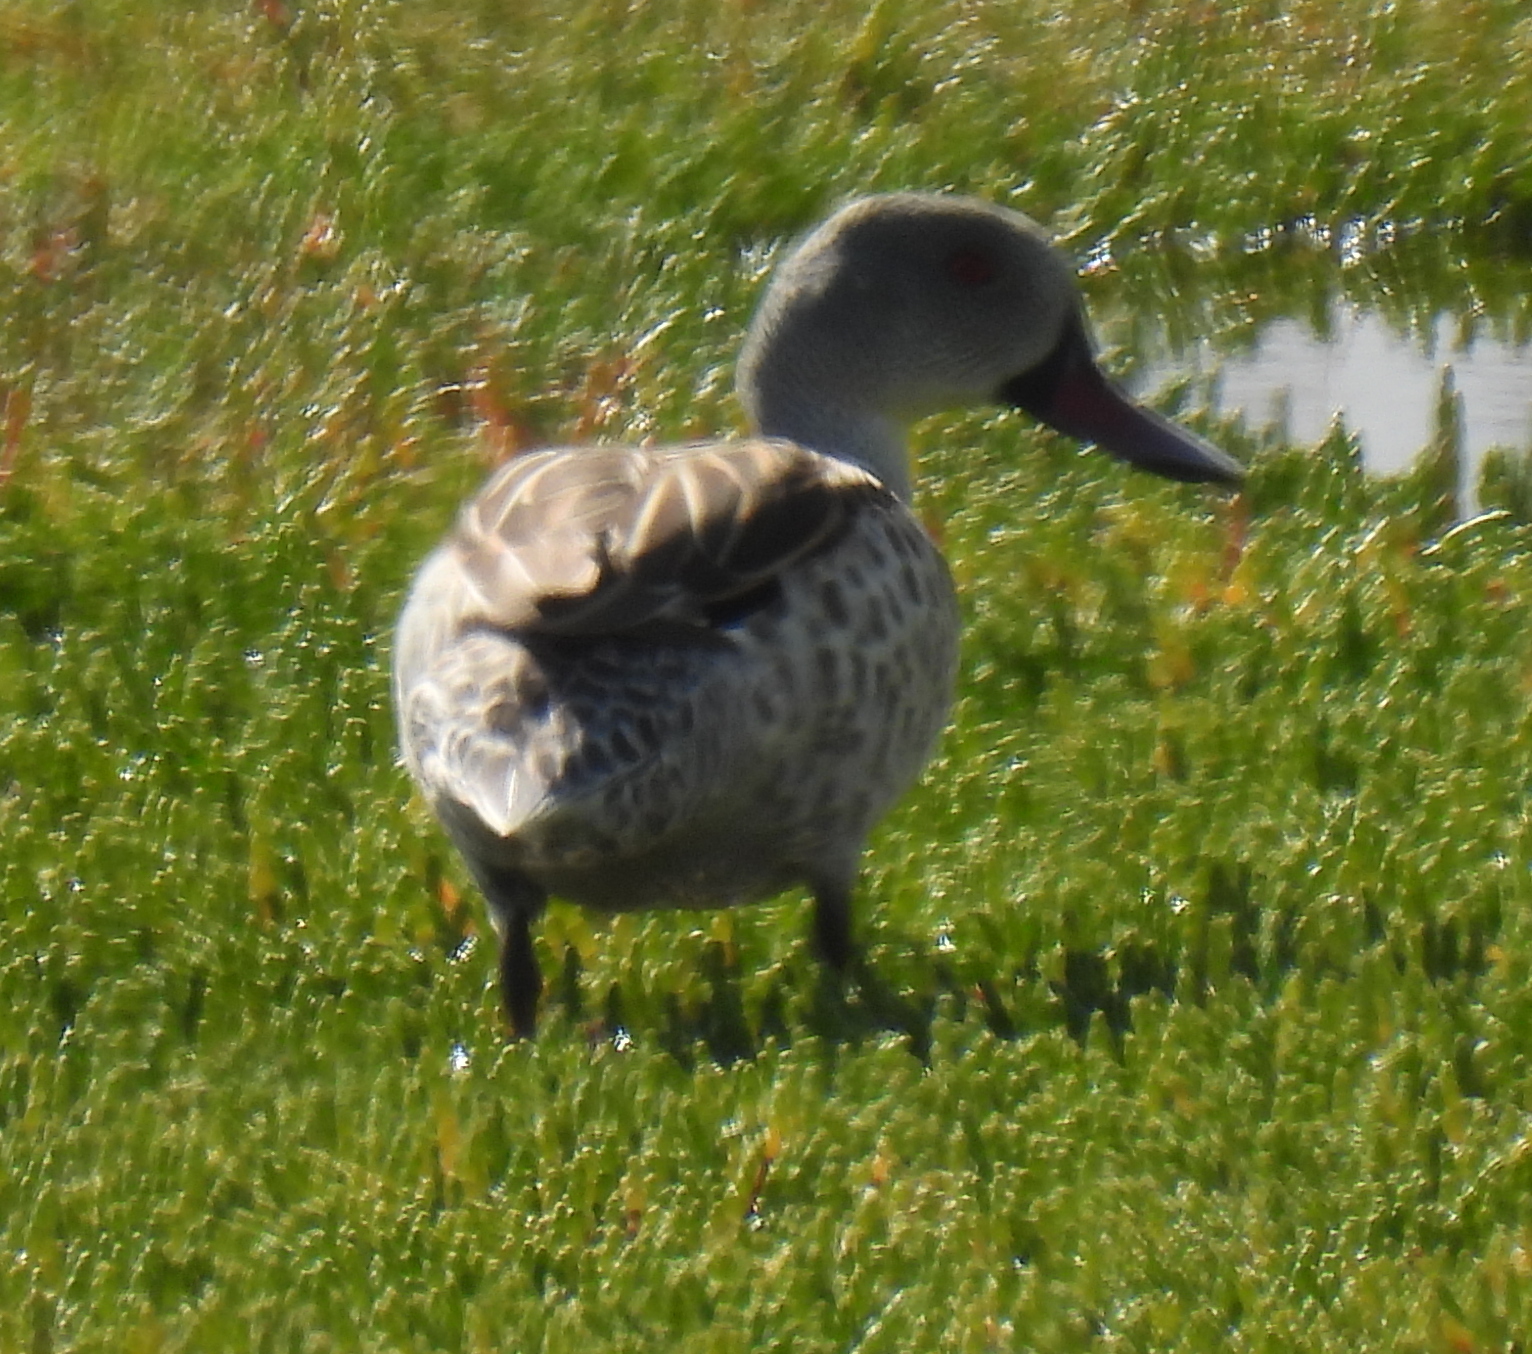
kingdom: Animalia
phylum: Chordata
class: Aves
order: Anseriformes
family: Anatidae
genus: Anas
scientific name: Anas capensis
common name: Cape teal
